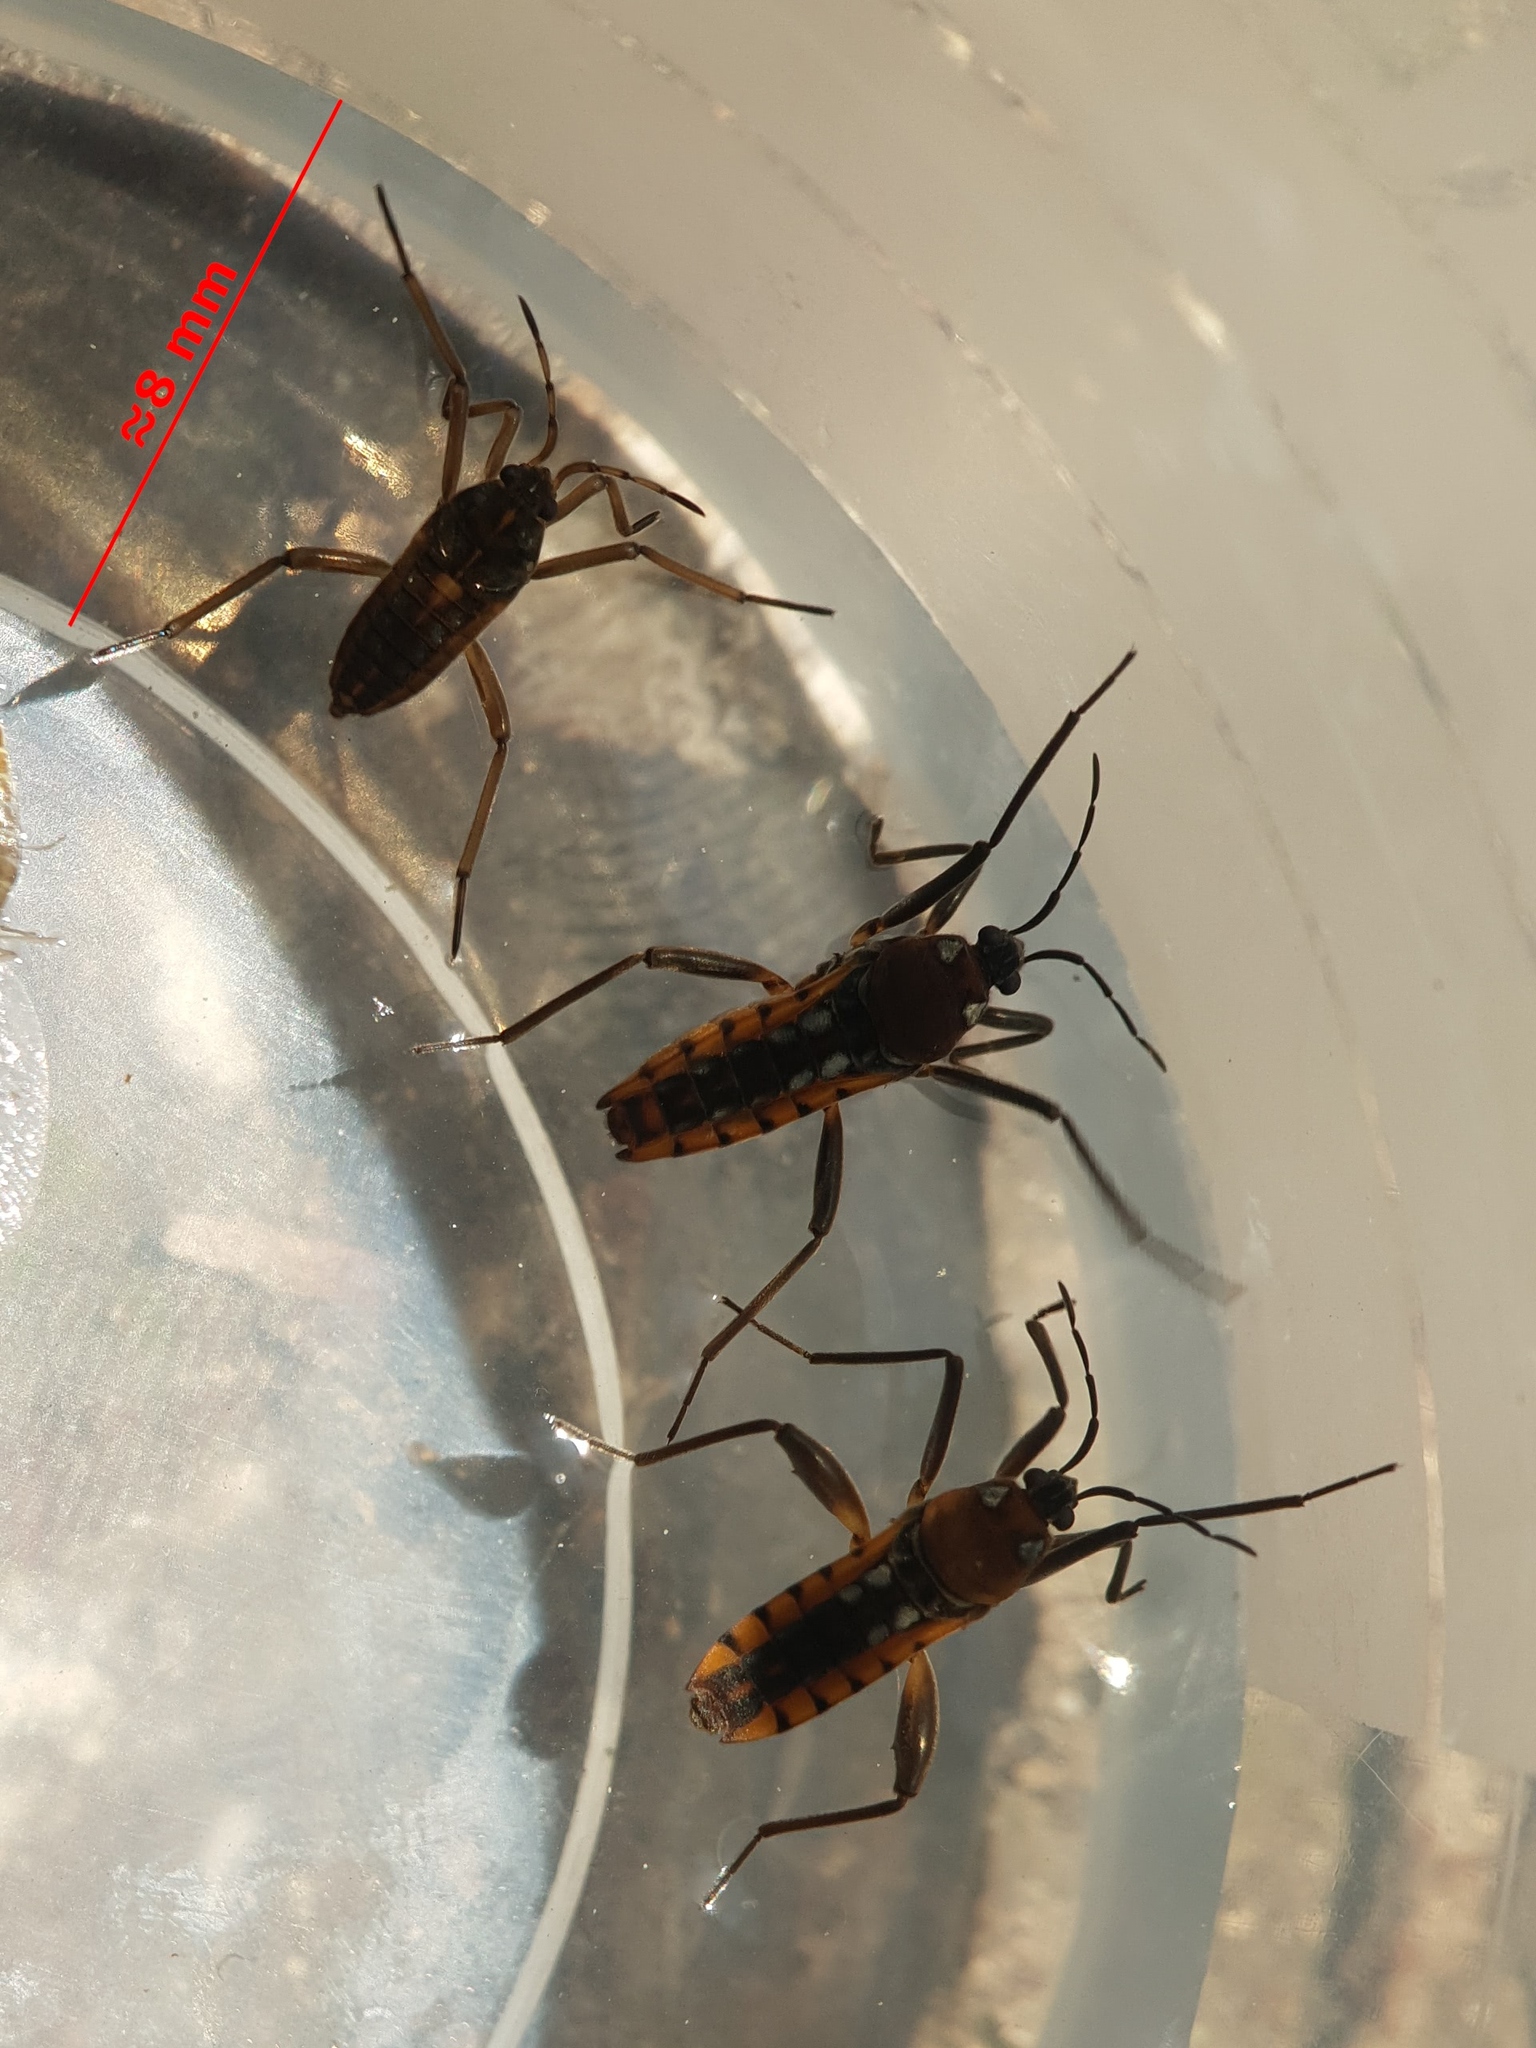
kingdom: Animalia
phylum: Arthropoda
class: Insecta
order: Hemiptera
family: Veliidae
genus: Velia
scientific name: Velia
